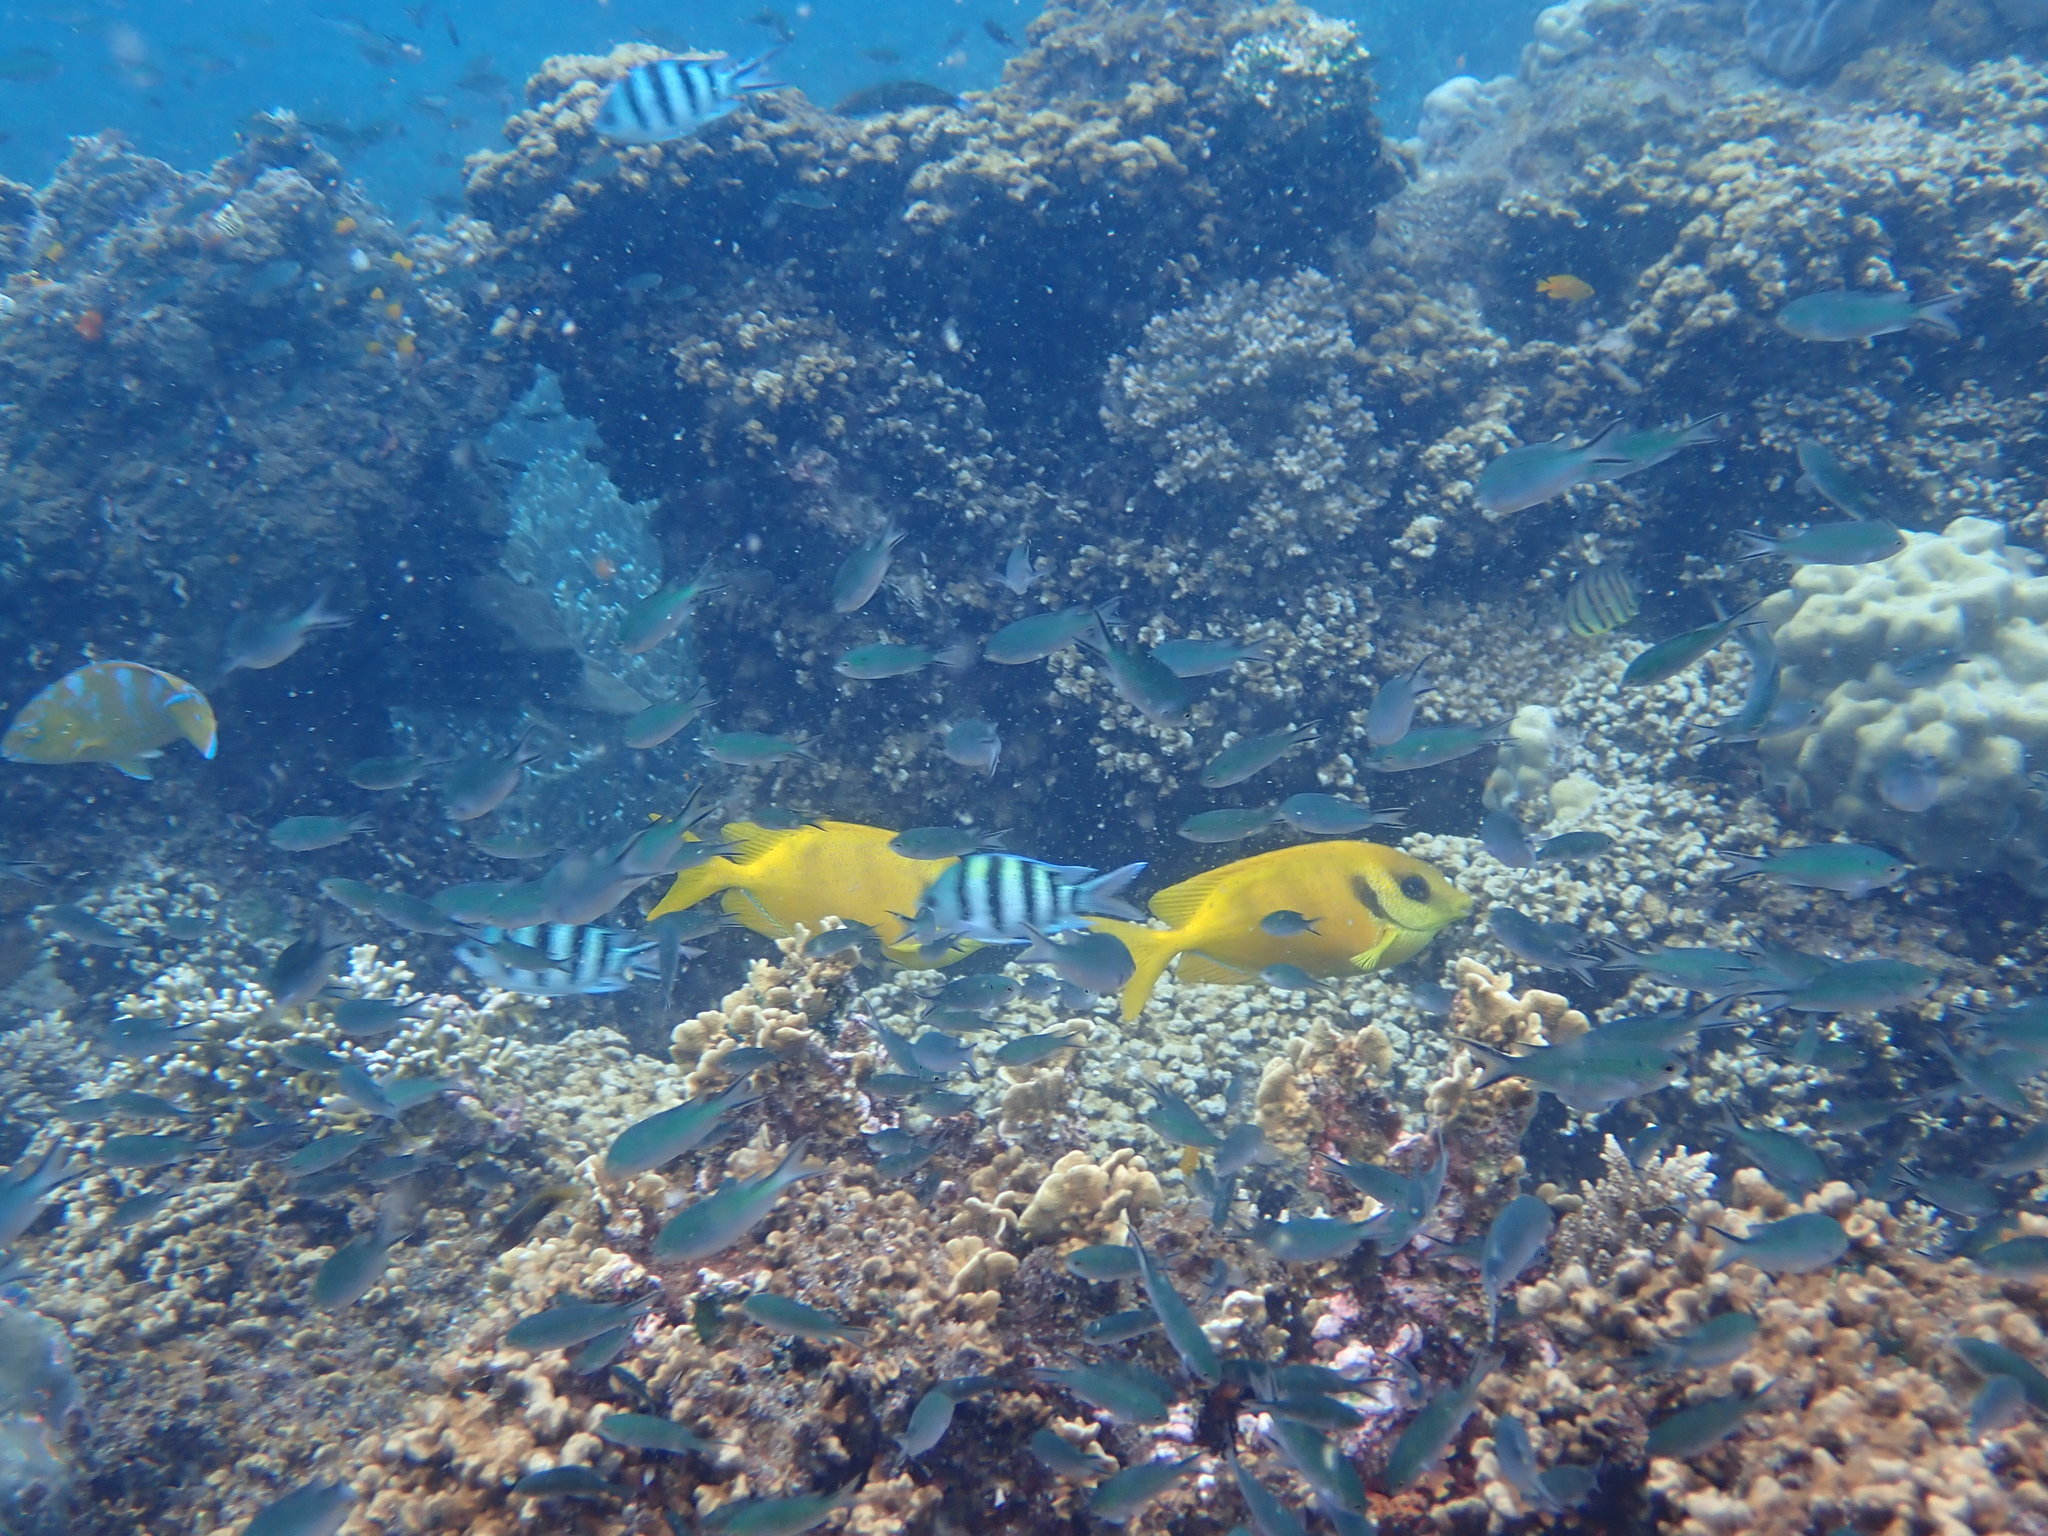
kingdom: Animalia
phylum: Chordata
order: Perciformes
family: Siganidae
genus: Siganus
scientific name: Siganus corallinus
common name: Coral rabbitfish
